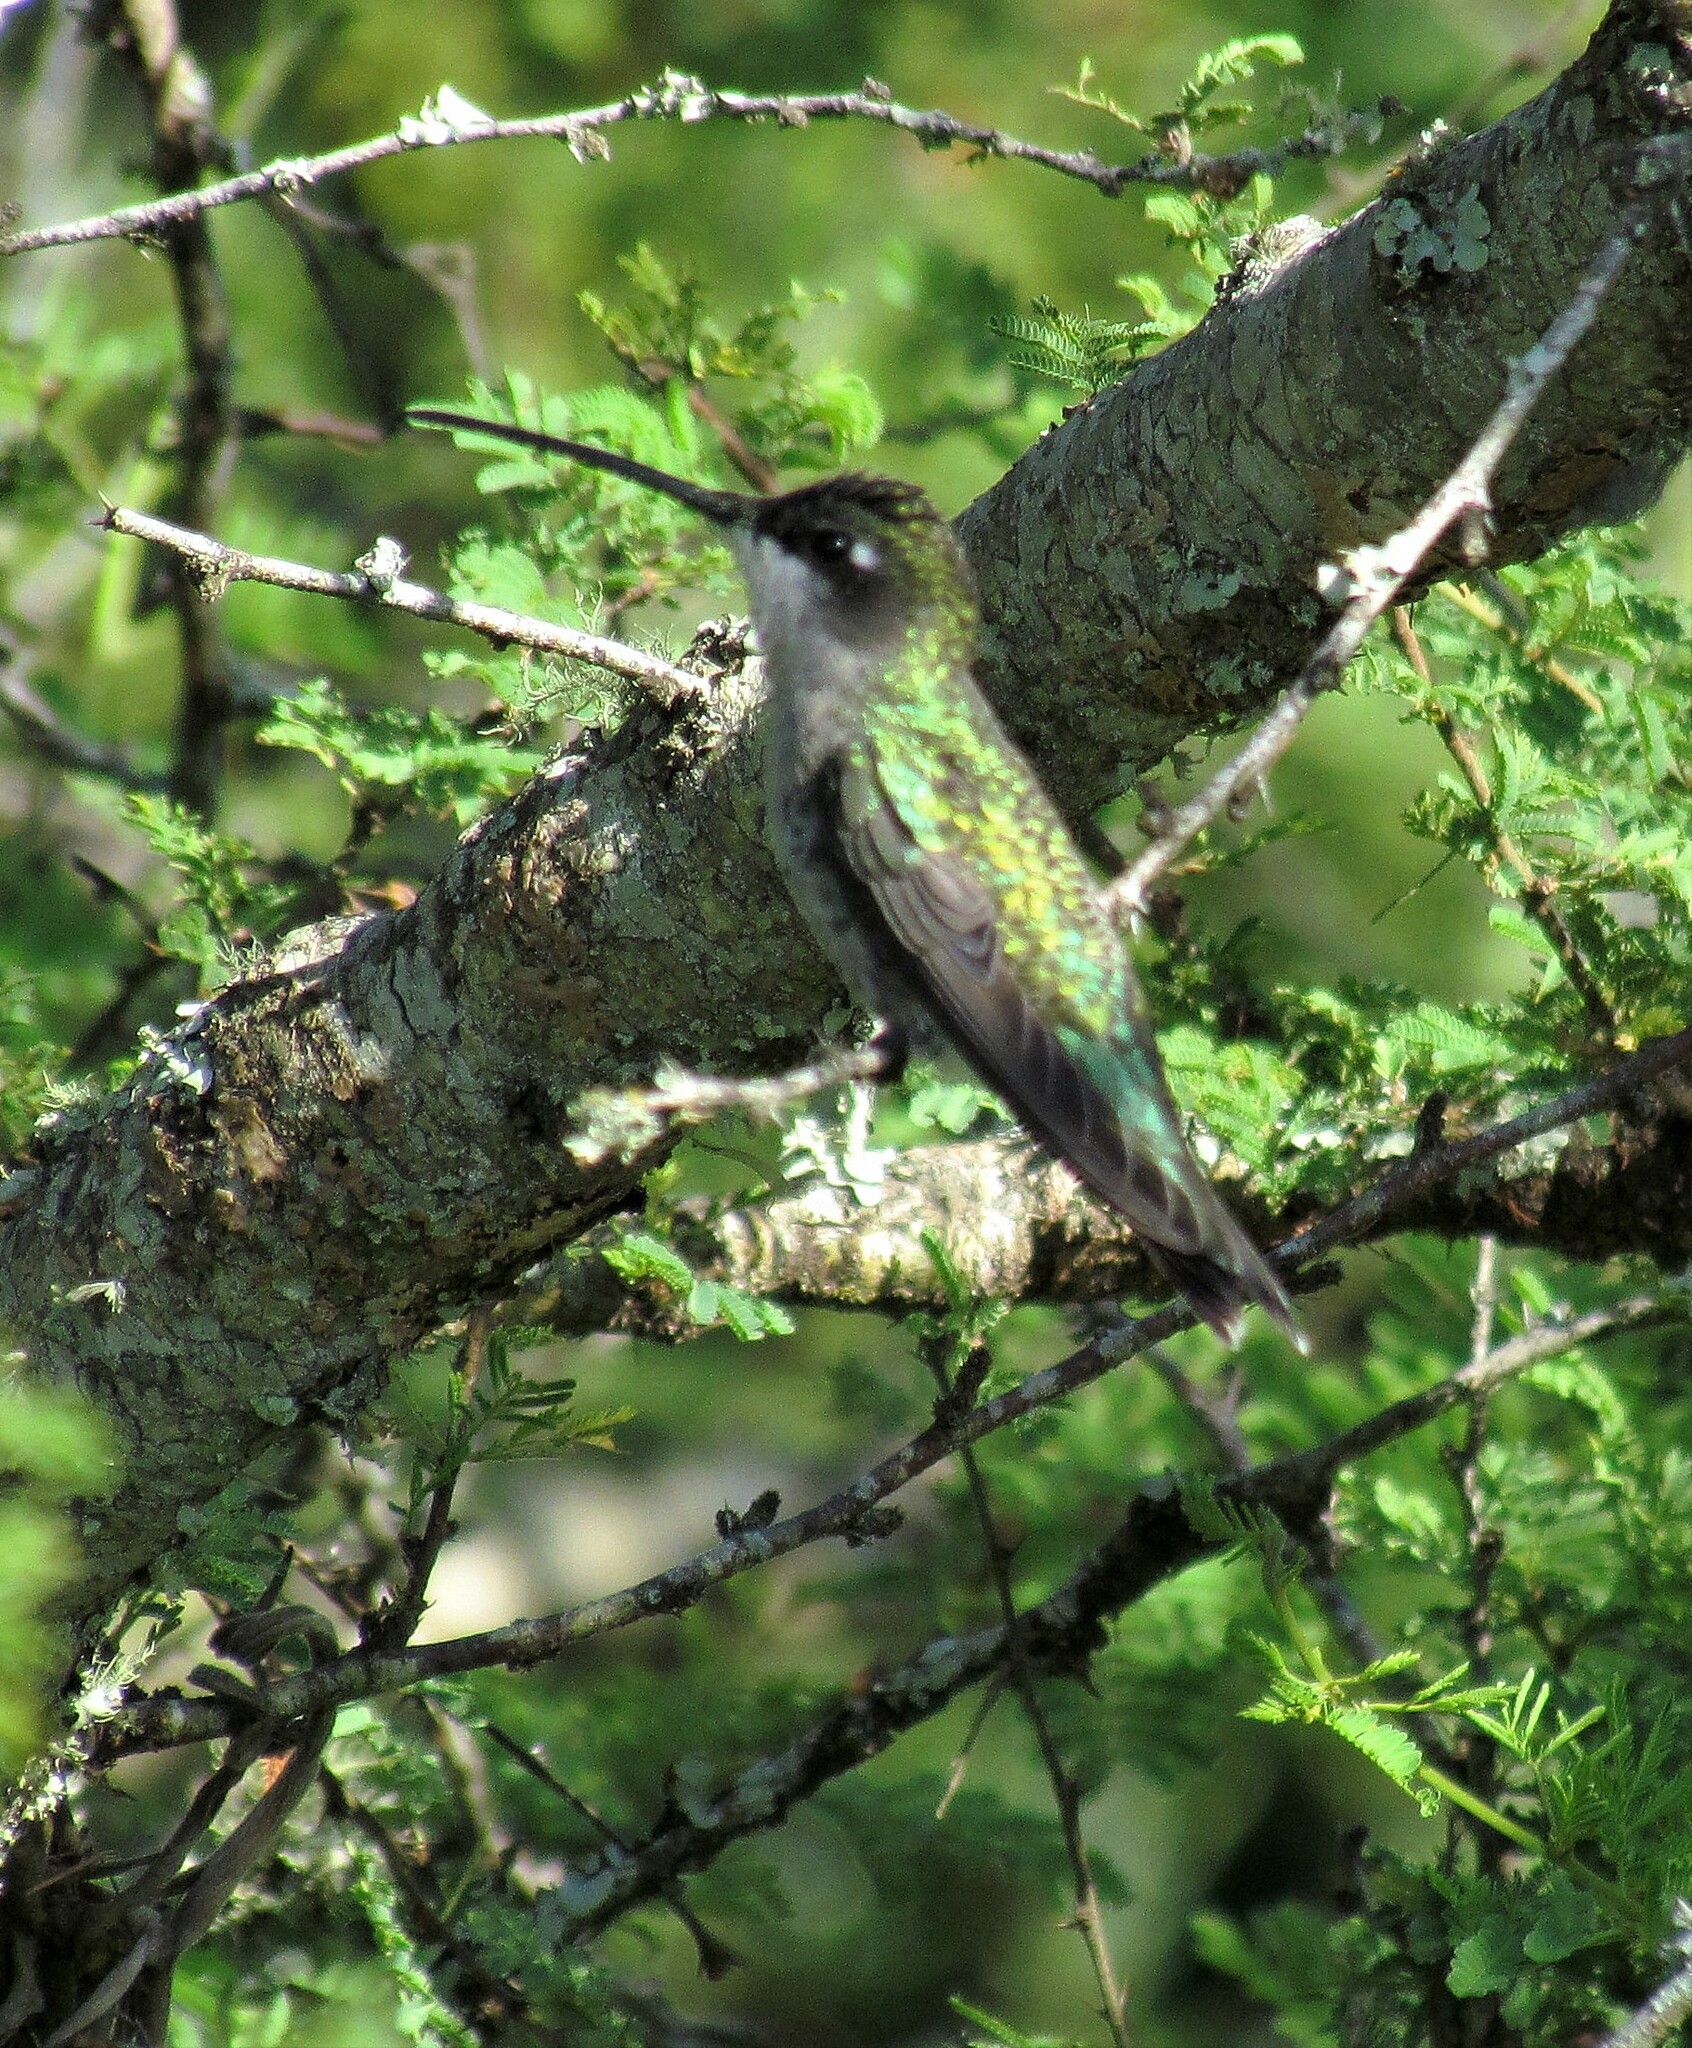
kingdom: Animalia
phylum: Chordata
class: Aves
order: Apodiformes
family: Trochilidae
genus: Heliomaster
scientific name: Heliomaster furcifer
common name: Blue-tufted starthroat
